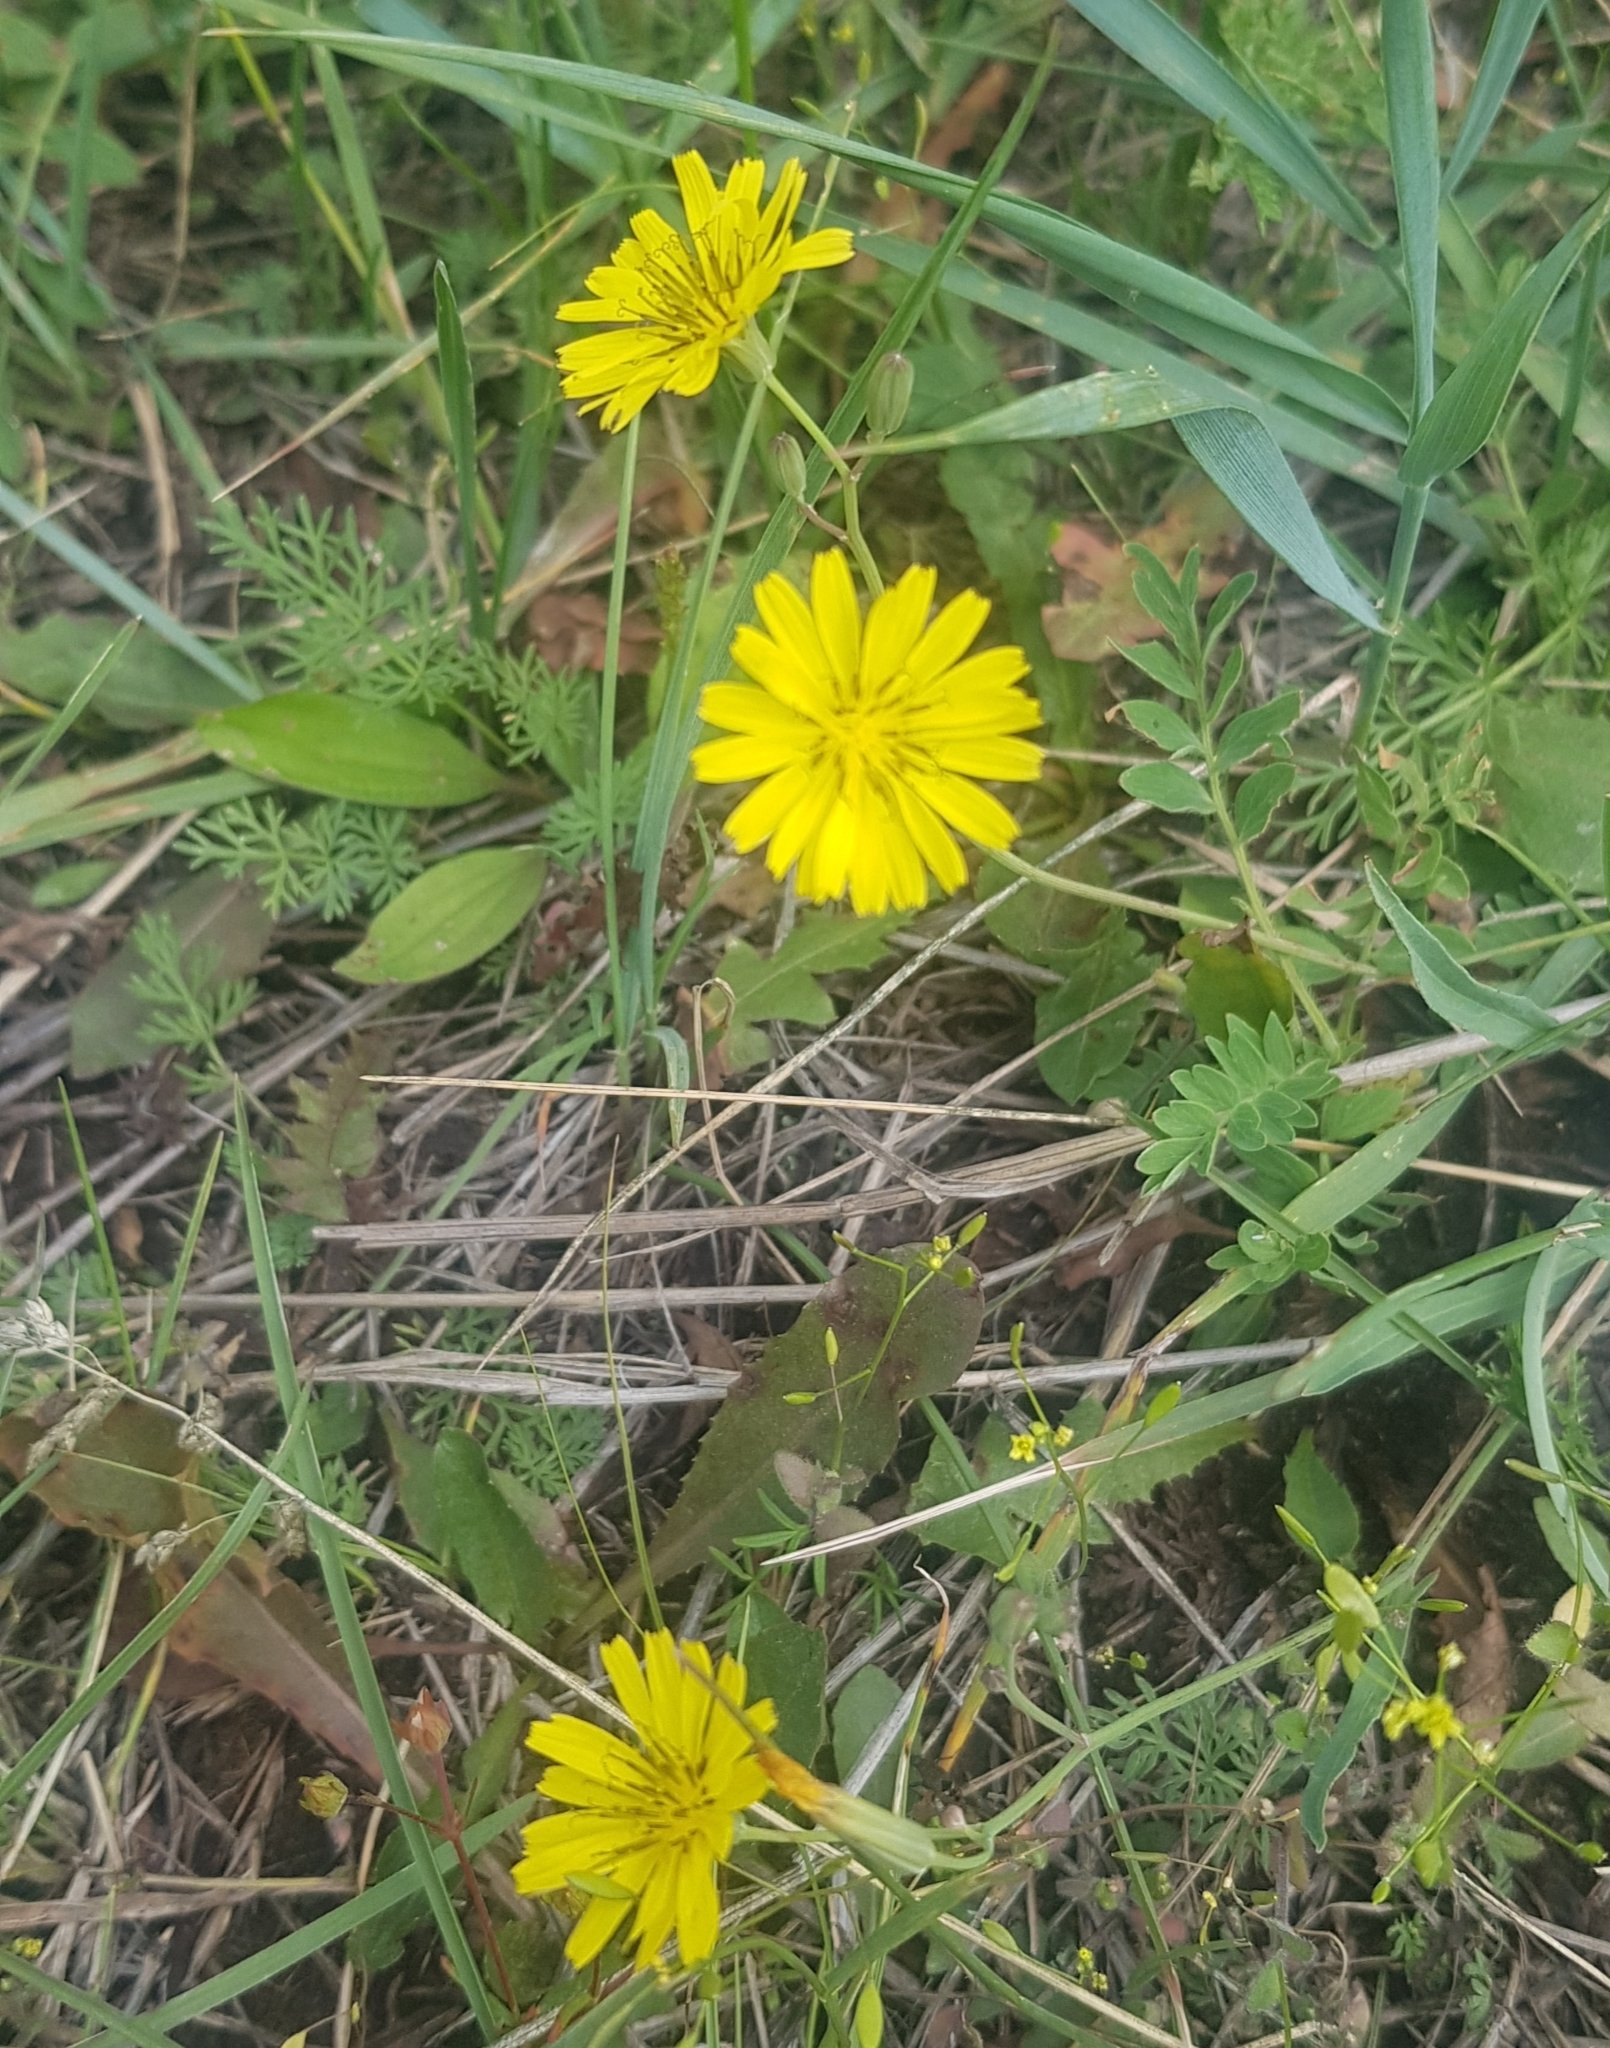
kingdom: Plantae
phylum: Tracheophyta
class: Magnoliopsida
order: Asterales
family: Asteraceae
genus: Ixeris
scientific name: Ixeris chinensis
